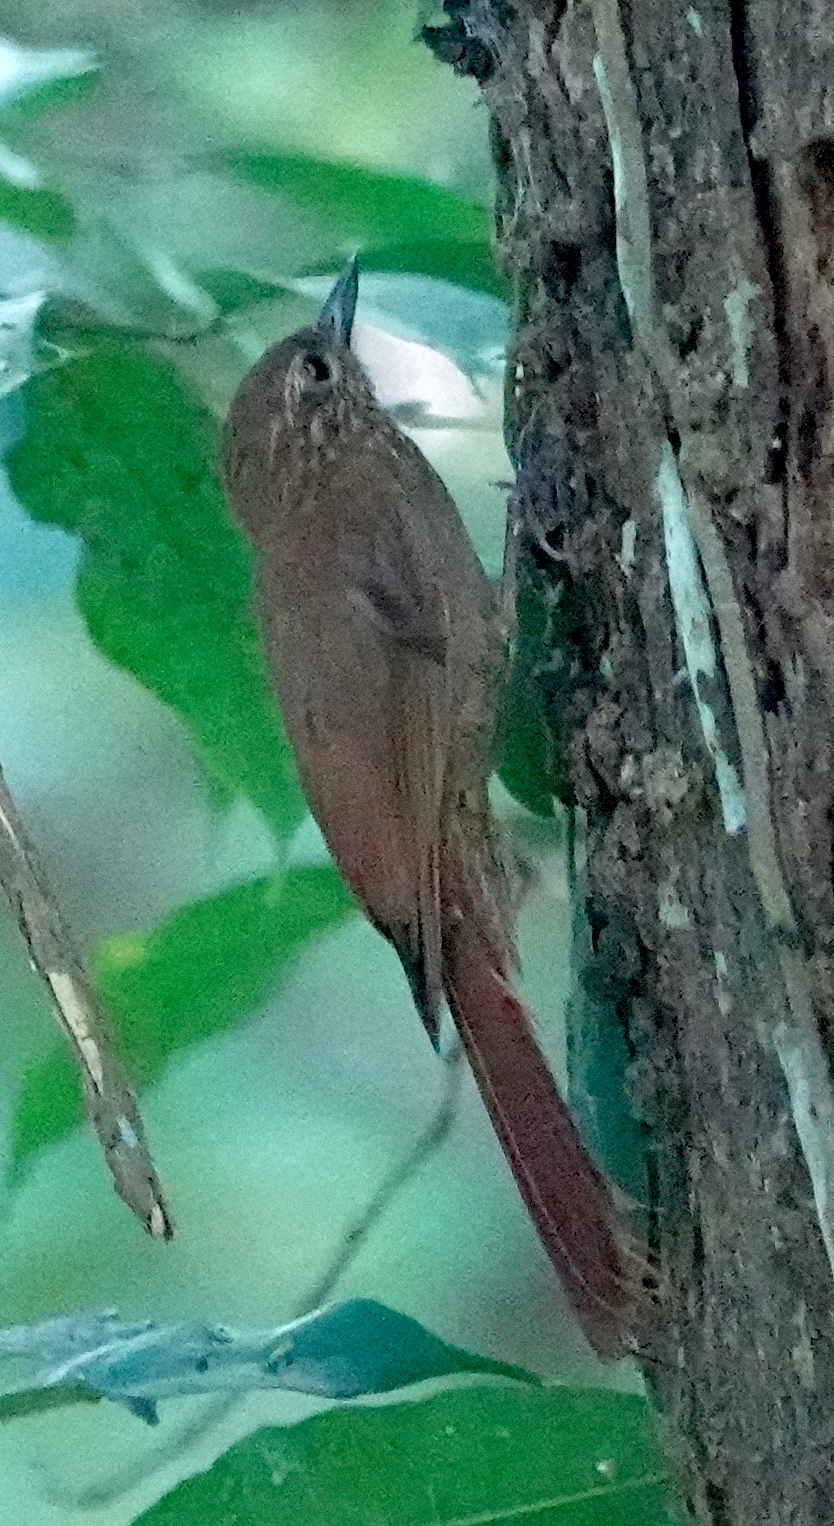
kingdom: Animalia
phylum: Chordata
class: Aves
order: Passeriformes
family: Furnariidae
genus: Glyphorynchus
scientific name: Glyphorynchus spirurus
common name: Wedge-billed woodcreeper
